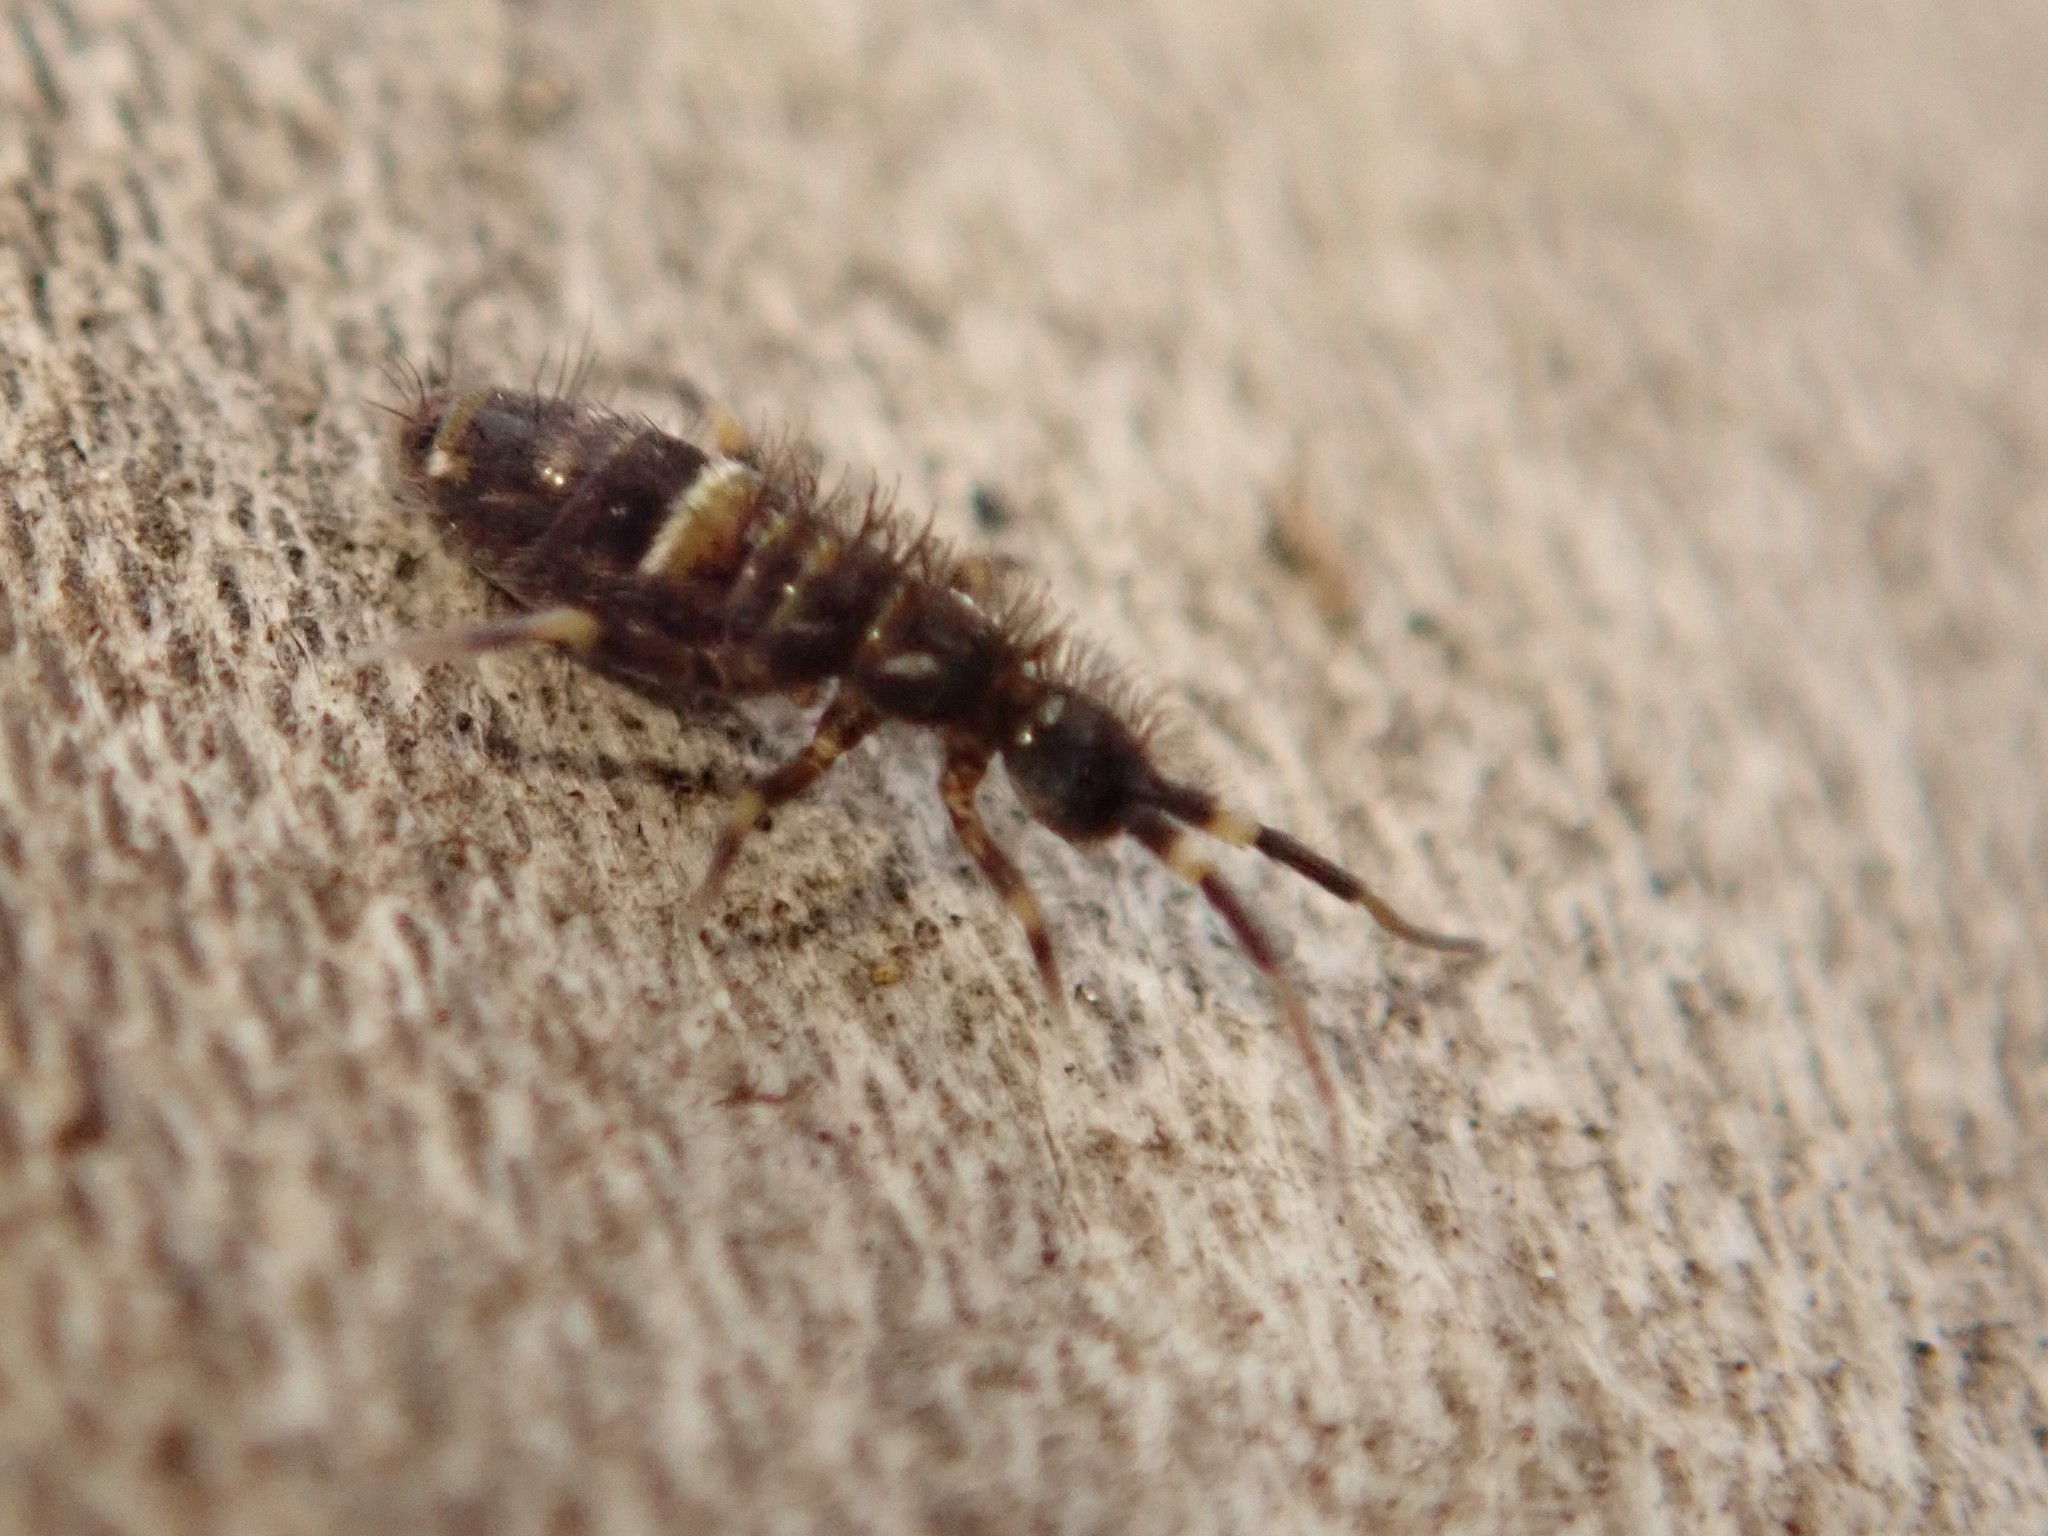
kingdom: Animalia
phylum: Arthropoda
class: Collembola
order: Entomobryomorpha
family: Orchesellidae
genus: Orchesella
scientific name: Orchesella cincta
